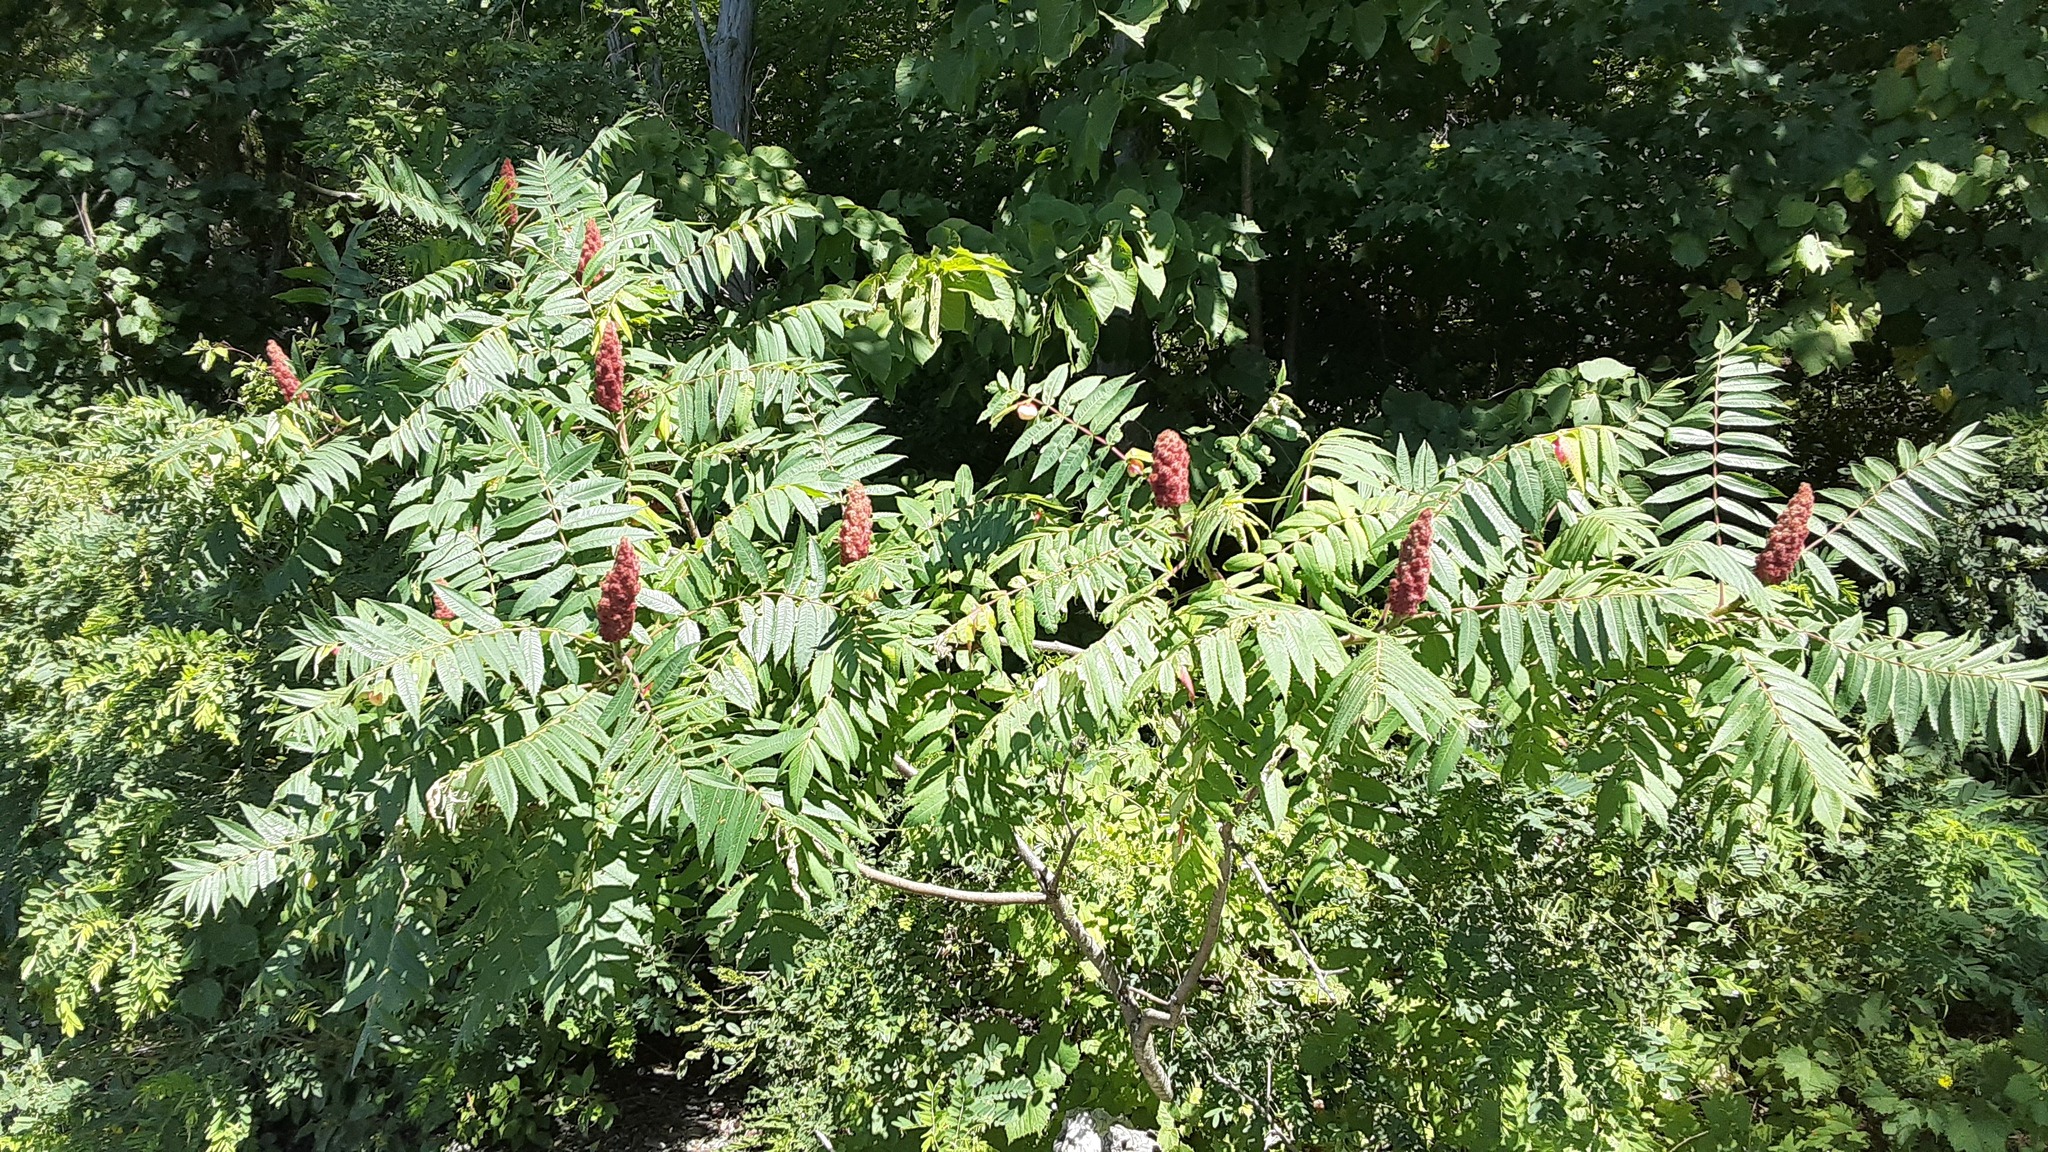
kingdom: Plantae
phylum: Tracheophyta
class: Magnoliopsida
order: Sapindales
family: Anacardiaceae
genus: Rhus
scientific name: Rhus typhina
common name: Staghorn sumac
